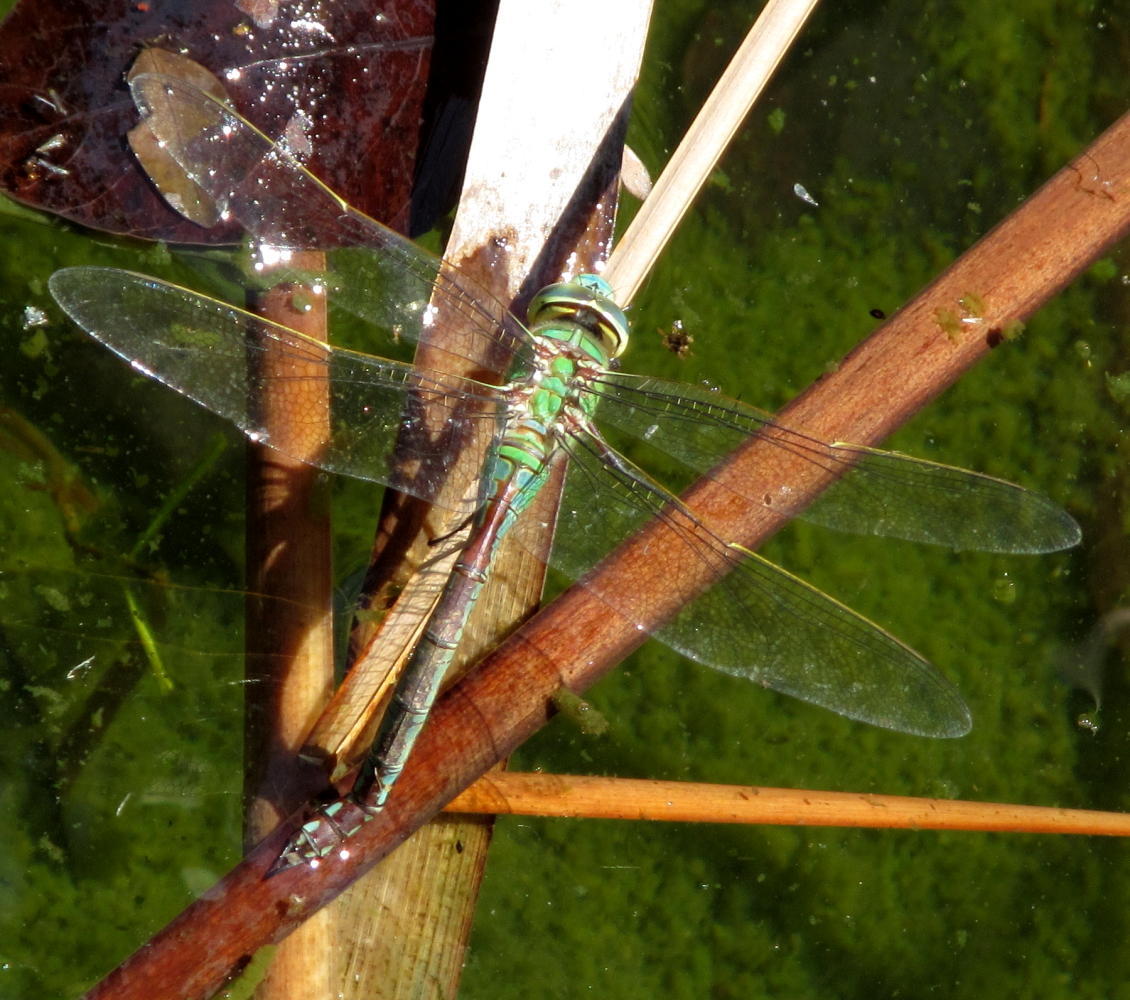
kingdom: Animalia
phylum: Arthropoda
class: Insecta
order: Odonata
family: Aeshnidae
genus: Anax
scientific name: Anax imperator
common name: Emperor dragonfly
